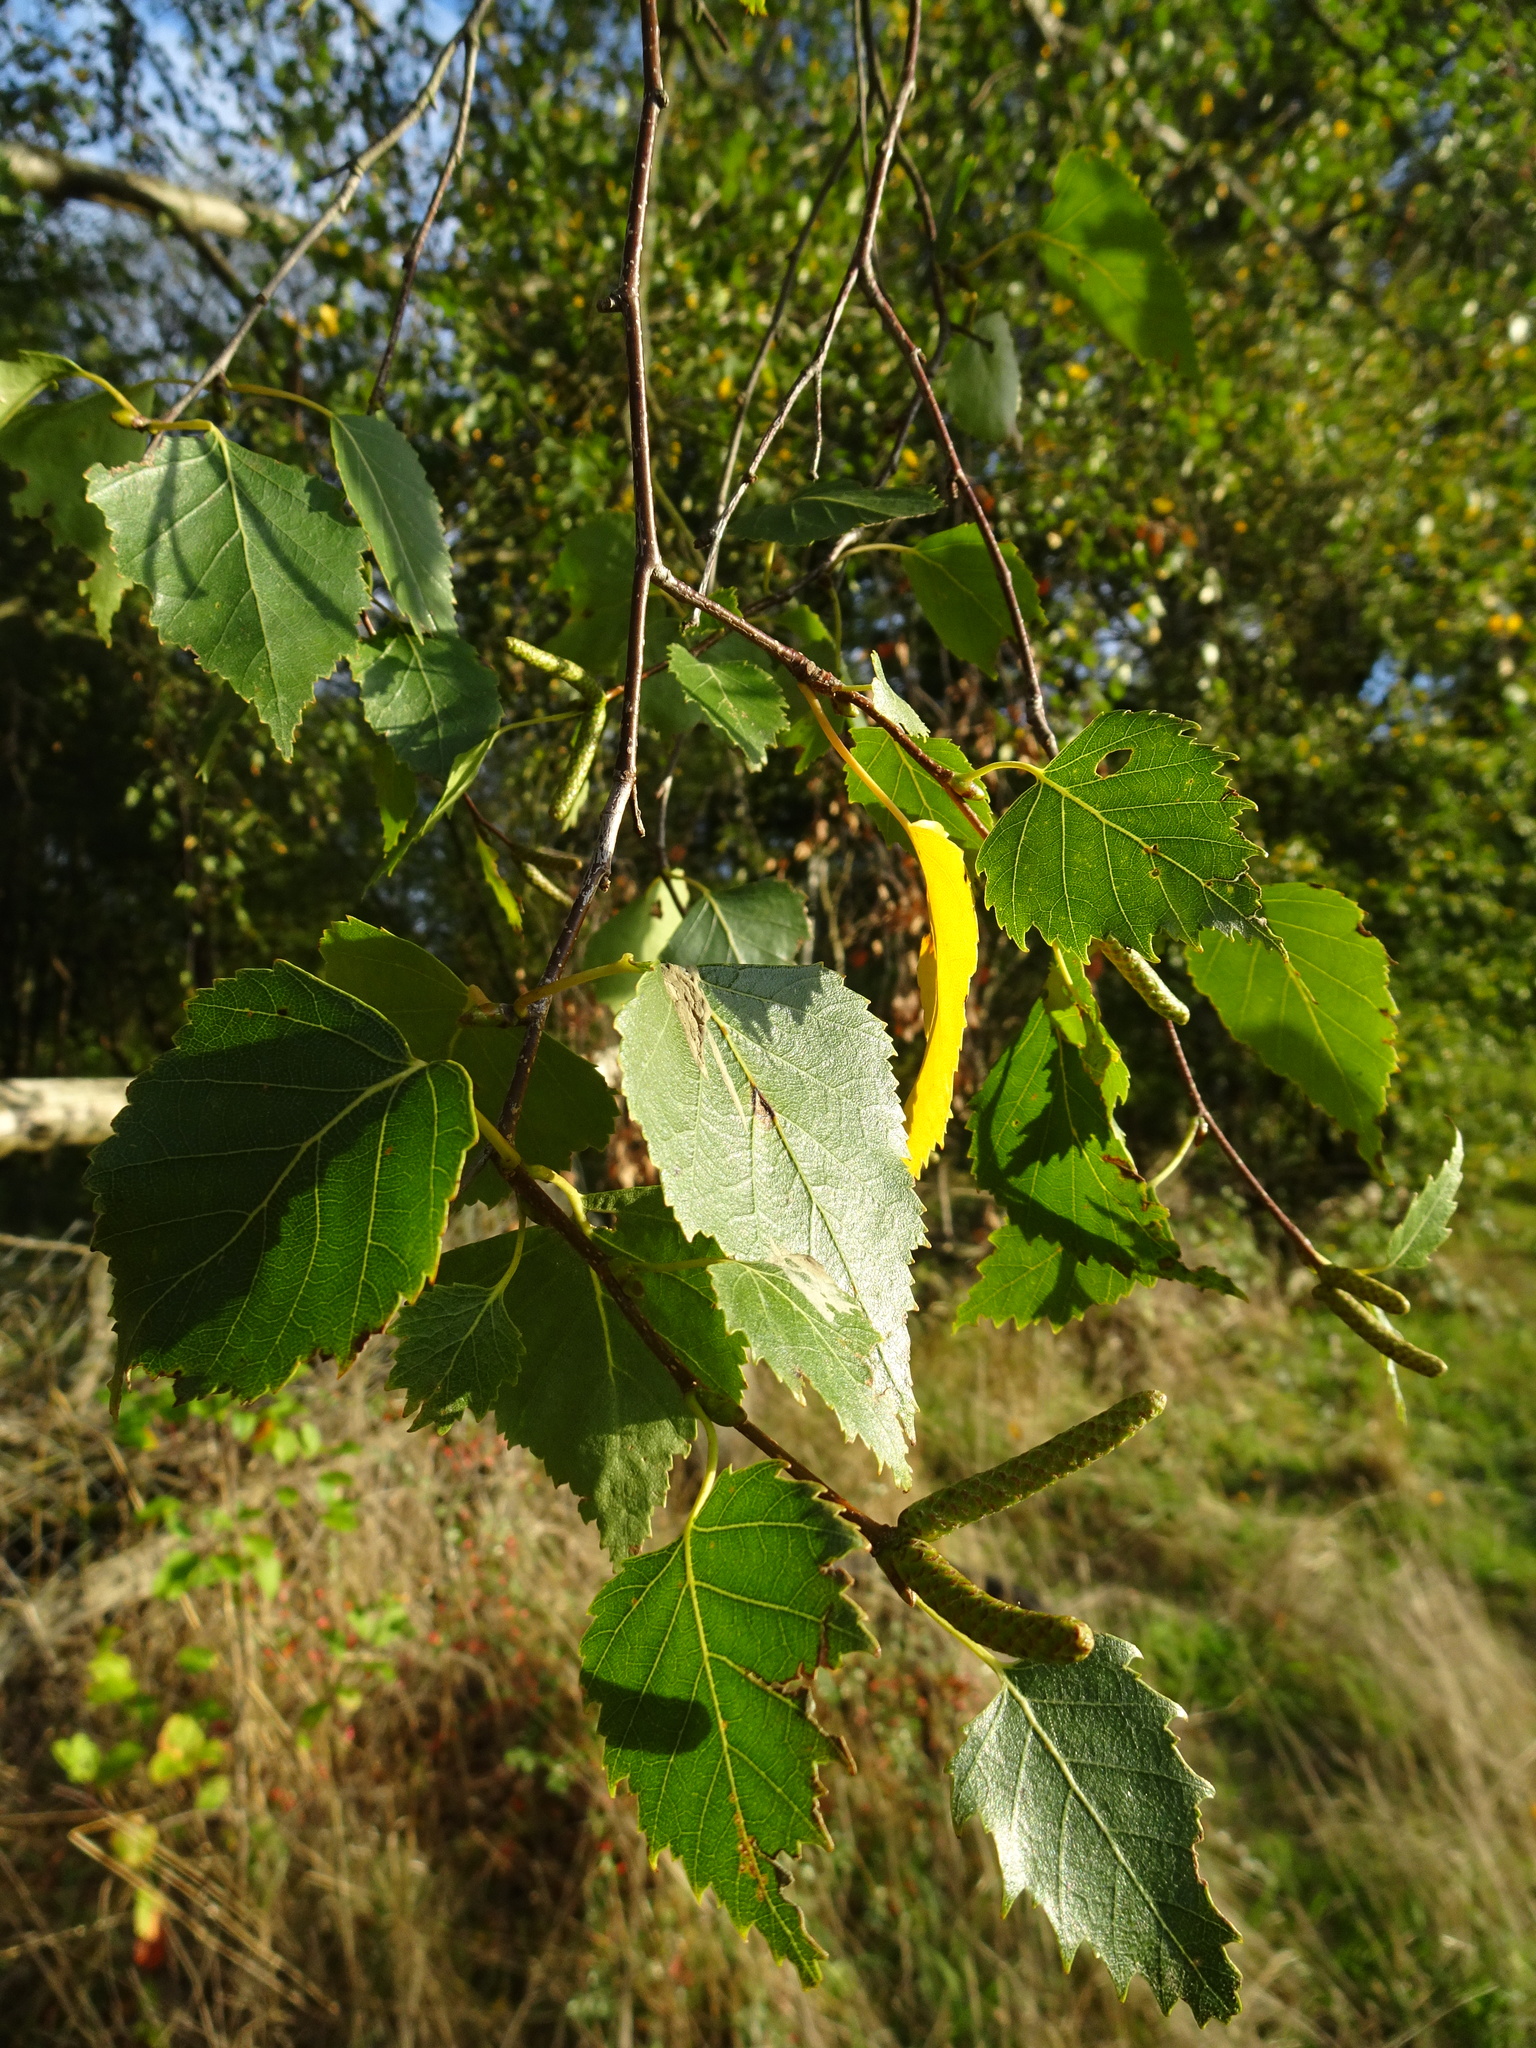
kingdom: Plantae
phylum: Tracheophyta
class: Magnoliopsida
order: Fagales
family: Betulaceae
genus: Betula
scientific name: Betula pendula
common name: Silver birch
